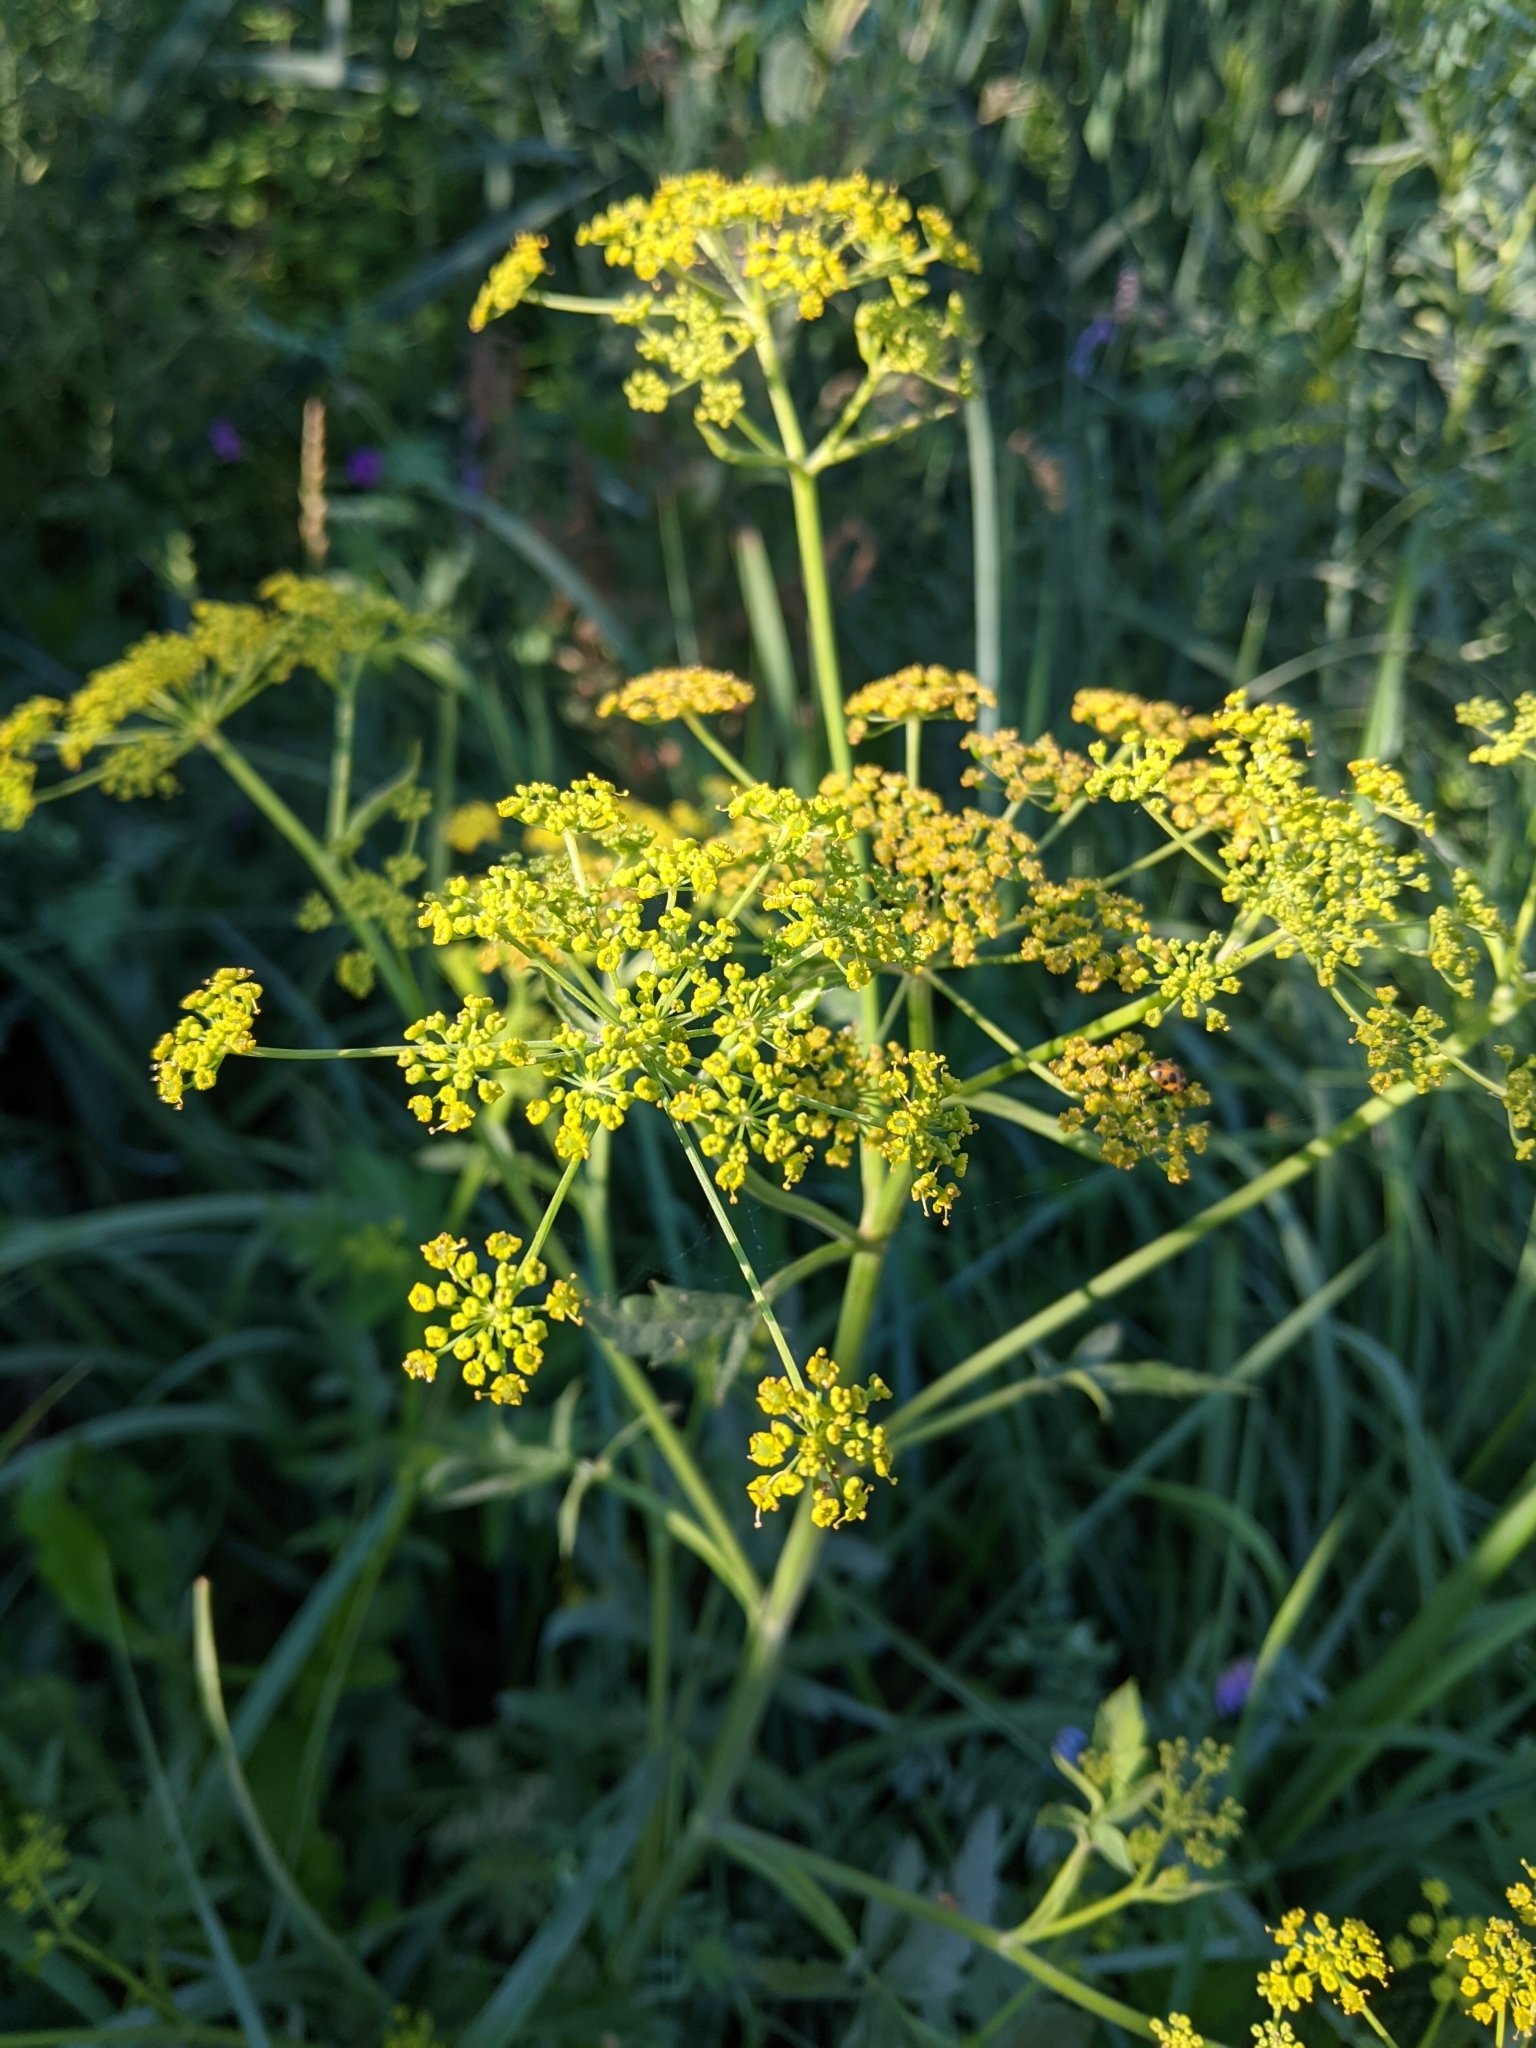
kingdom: Plantae
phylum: Tracheophyta
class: Magnoliopsida
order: Apiales
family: Apiaceae
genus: Pastinaca
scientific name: Pastinaca sativa
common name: Wild parsnip
